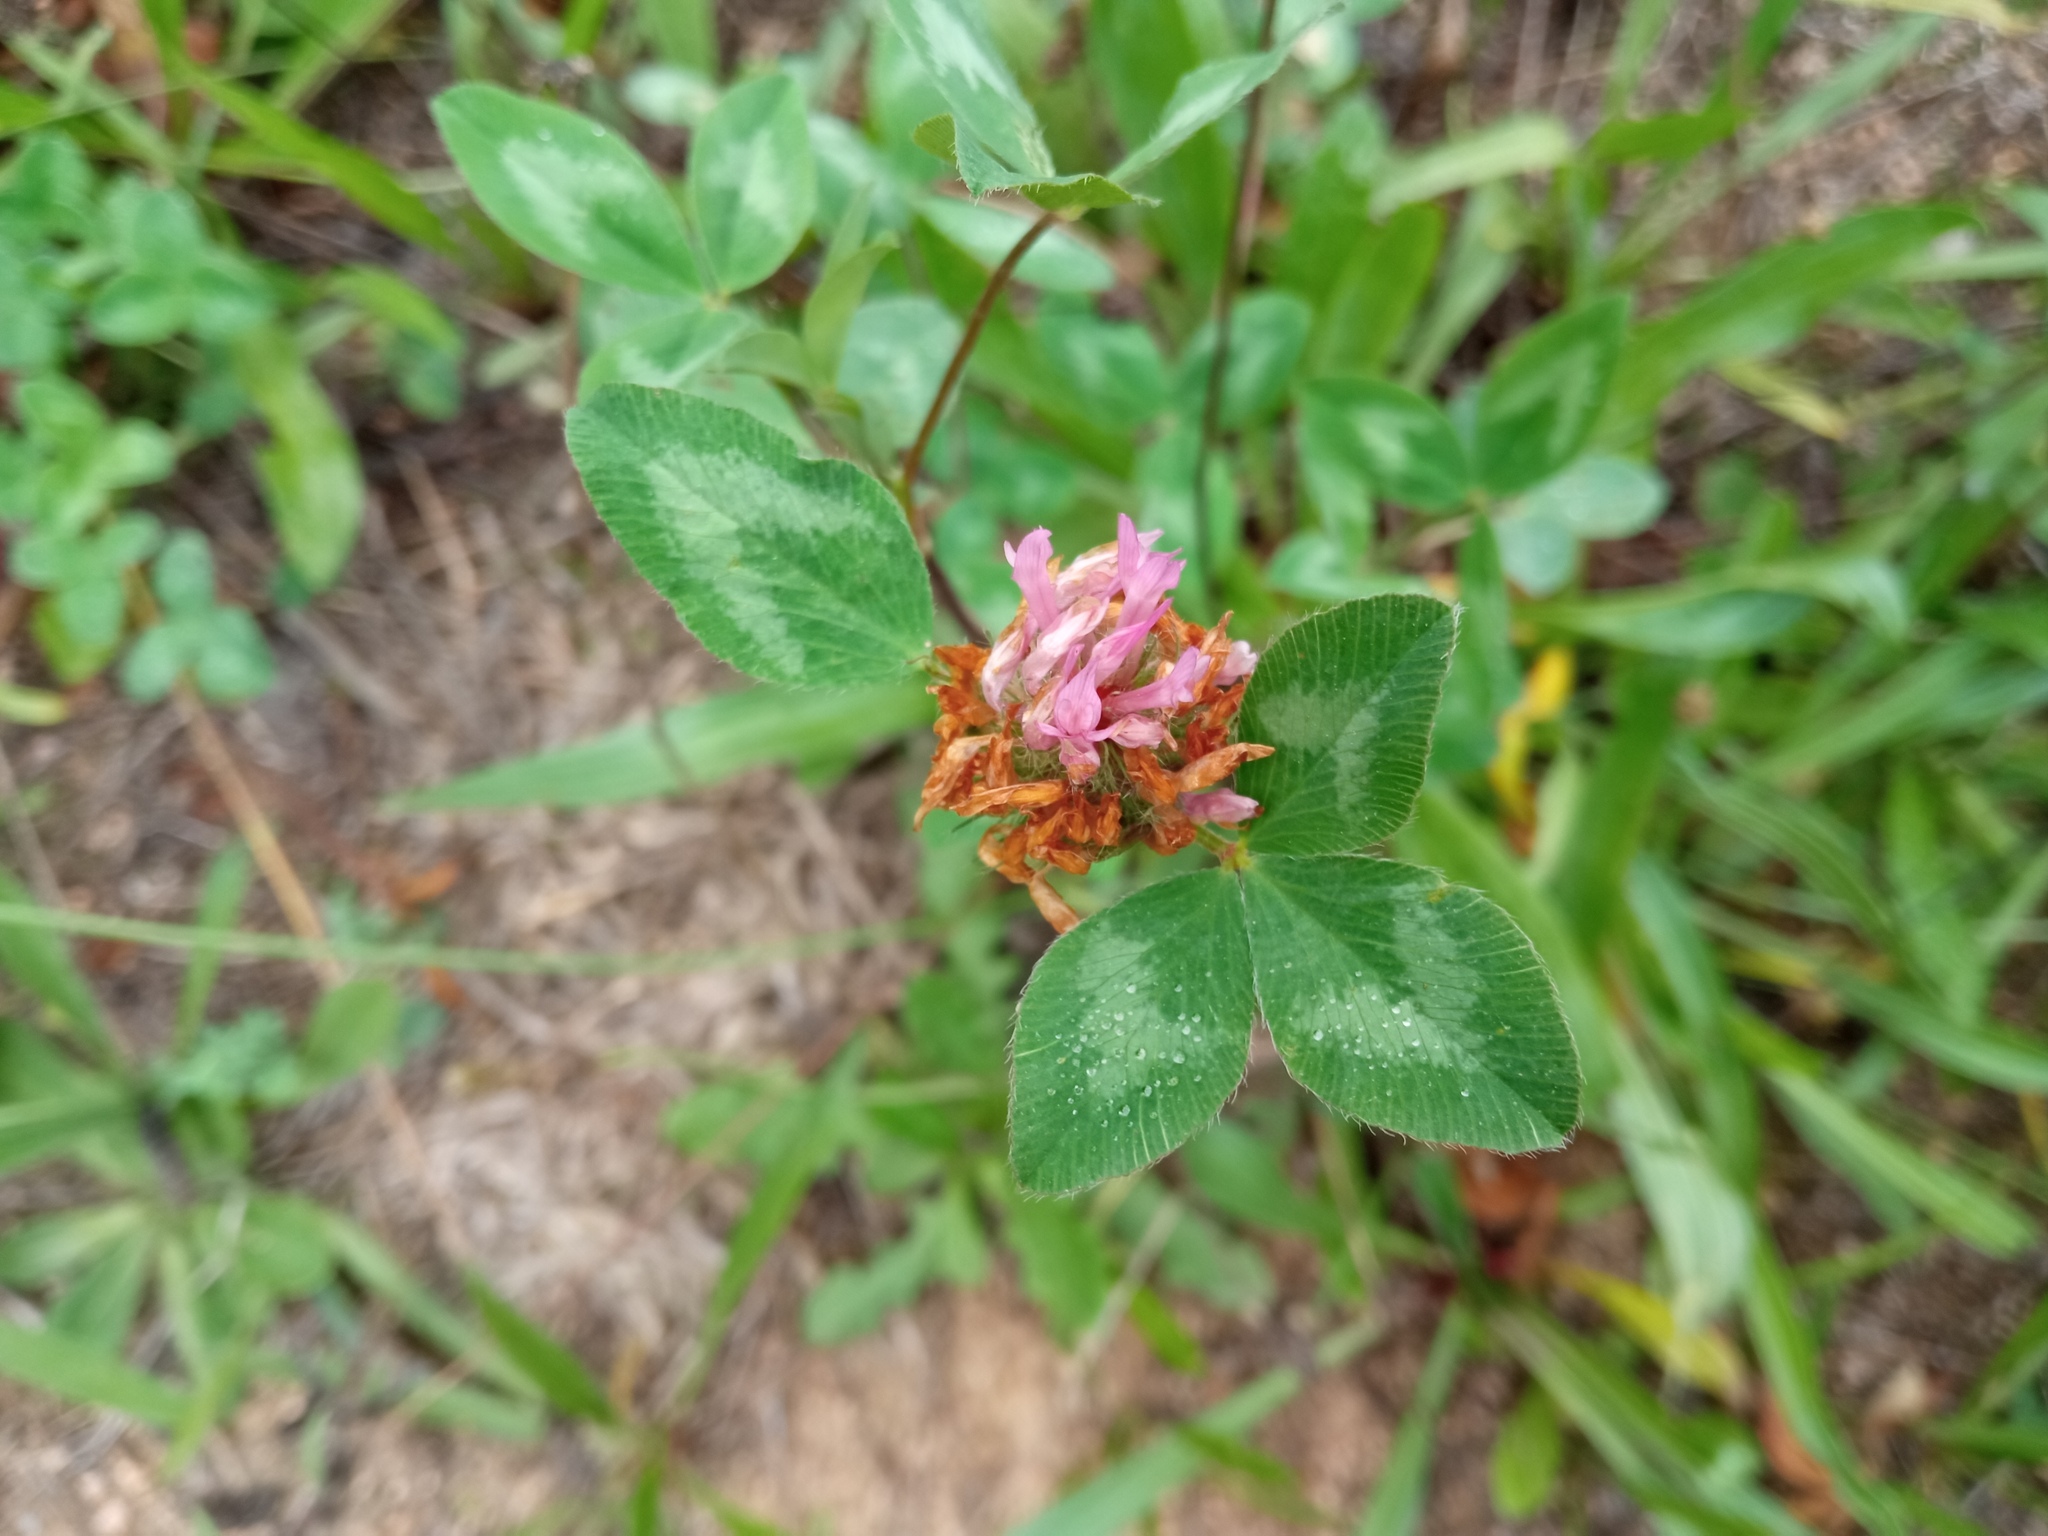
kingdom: Plantae
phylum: Tracheophyta
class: Magnoliopsida
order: Fabales
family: Fabaceae
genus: Trifolium
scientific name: Trifolium pratense
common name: Red clover
